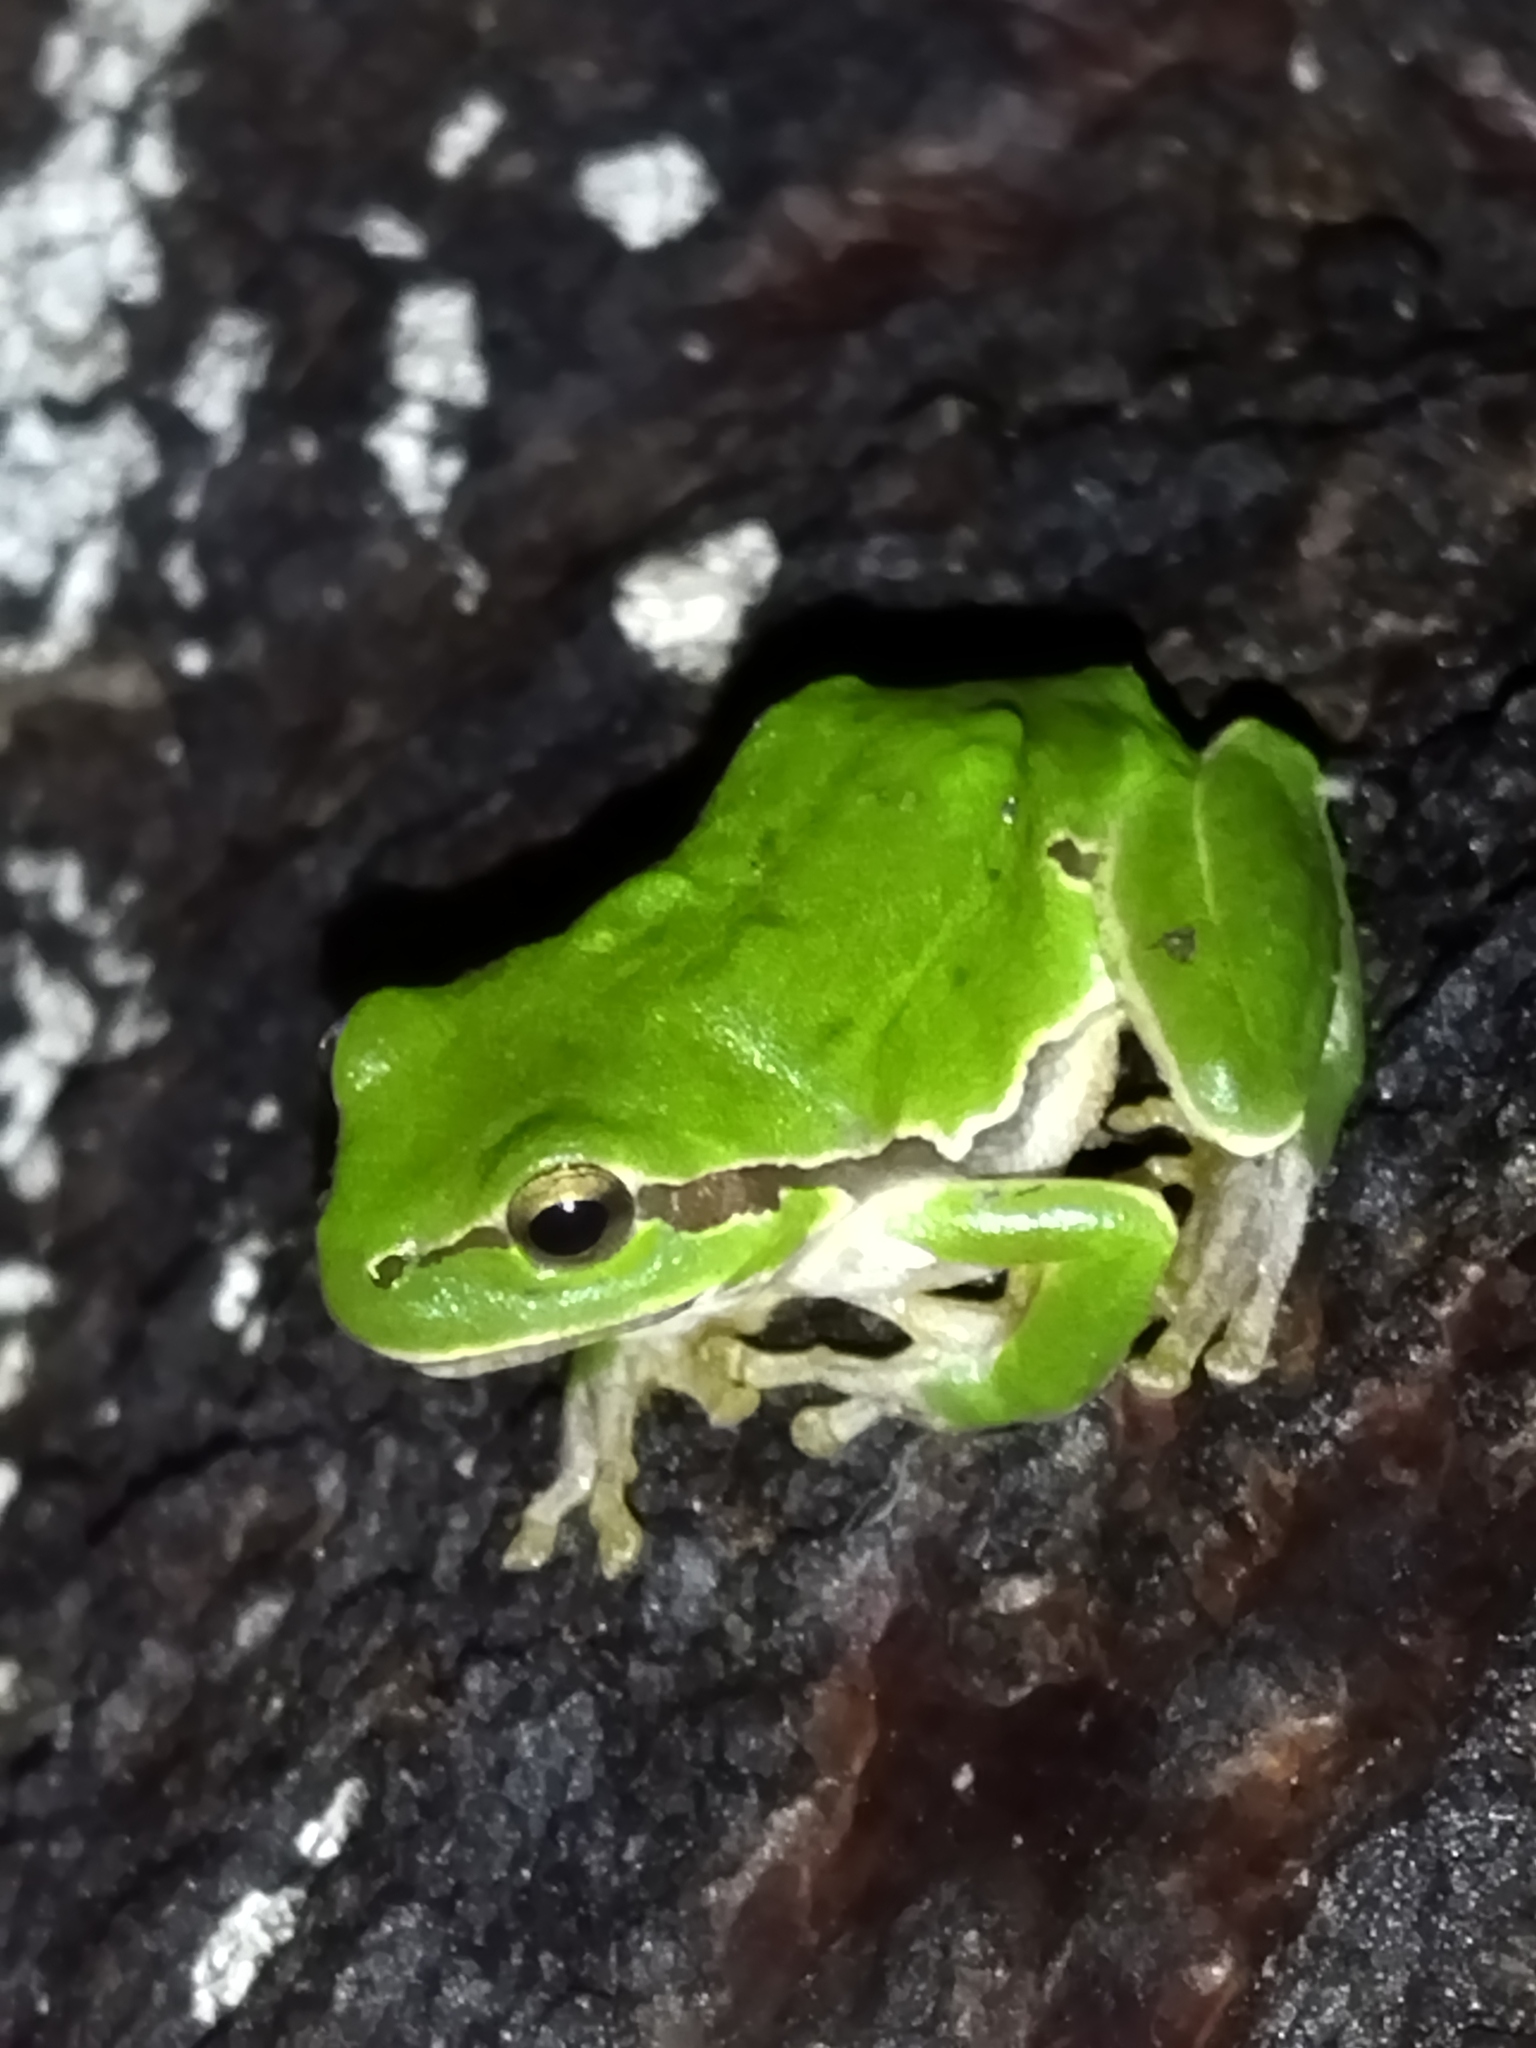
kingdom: Animalia
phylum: Chordata
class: Amphibia
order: Anura
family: Hylidae
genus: Hyla
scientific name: Hyla orientalis
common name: Caucasian treefrog
